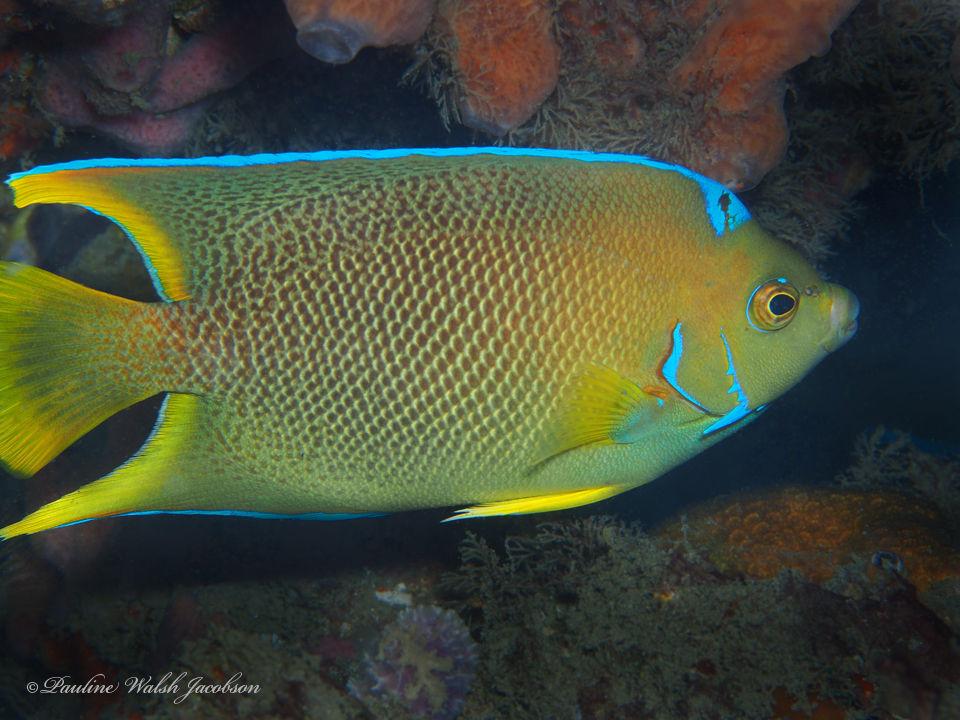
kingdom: Animalia
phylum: Chordata
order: Perciformes
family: Pomacanthidae
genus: Holacanthus
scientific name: Holacanthus ciliaris
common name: Queen angelfish
